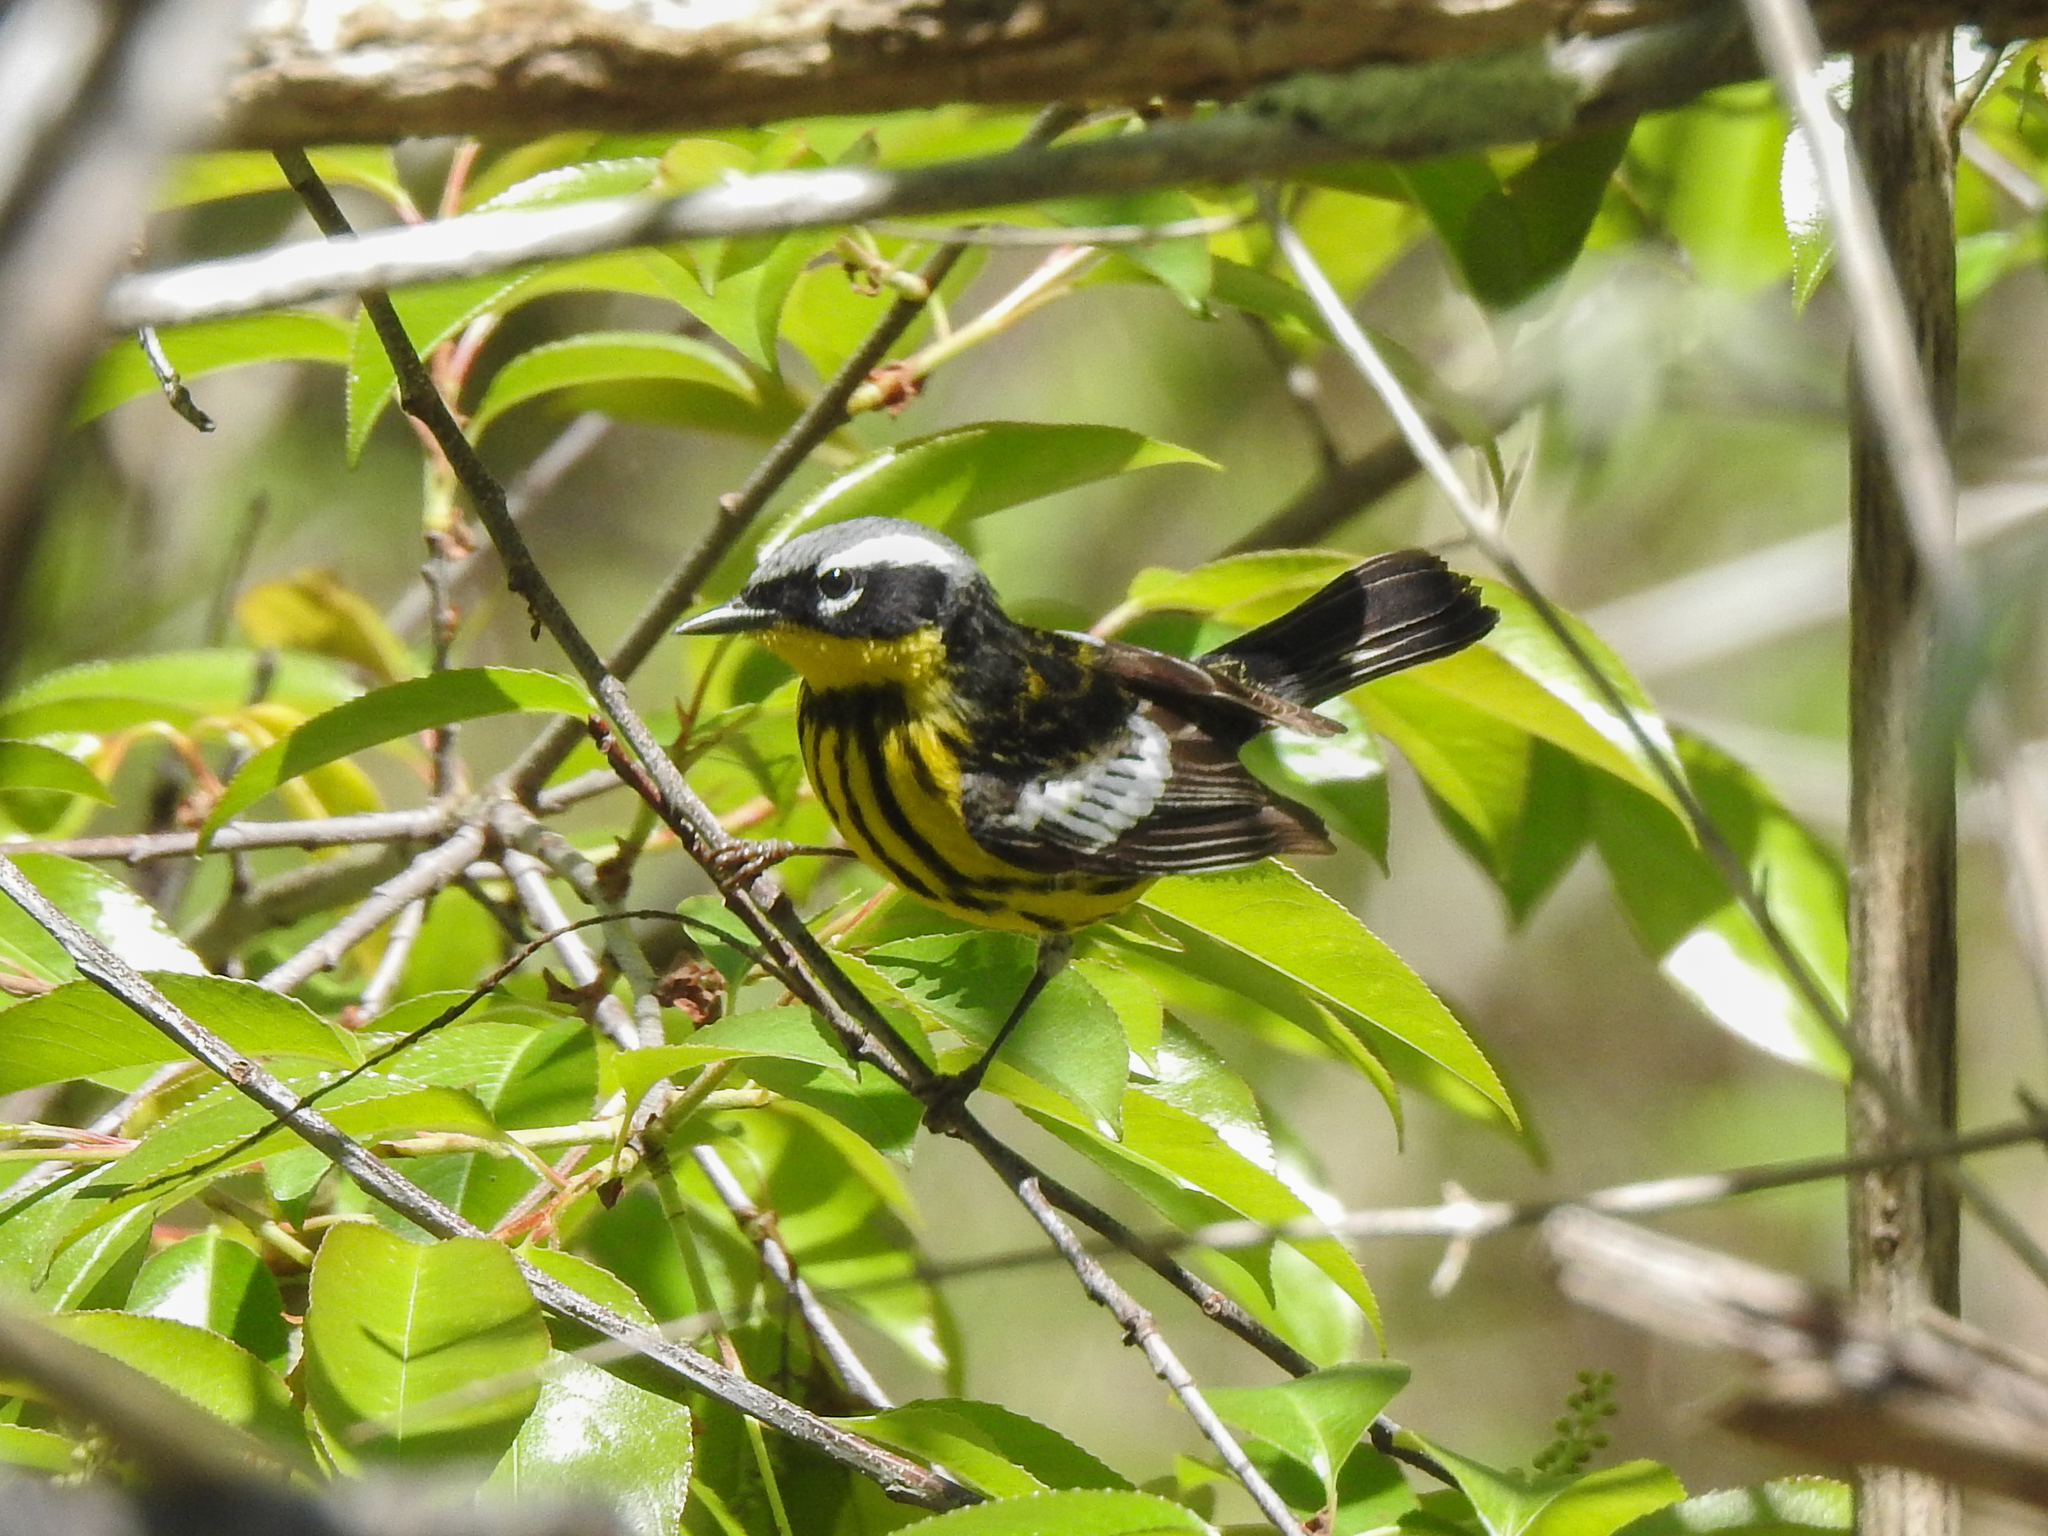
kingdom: Animalia
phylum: Chordata
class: Aves
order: Passeriformes
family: Parulidae
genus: Setophaga
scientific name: Setophaga magnolia
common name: Magnolia warbler
